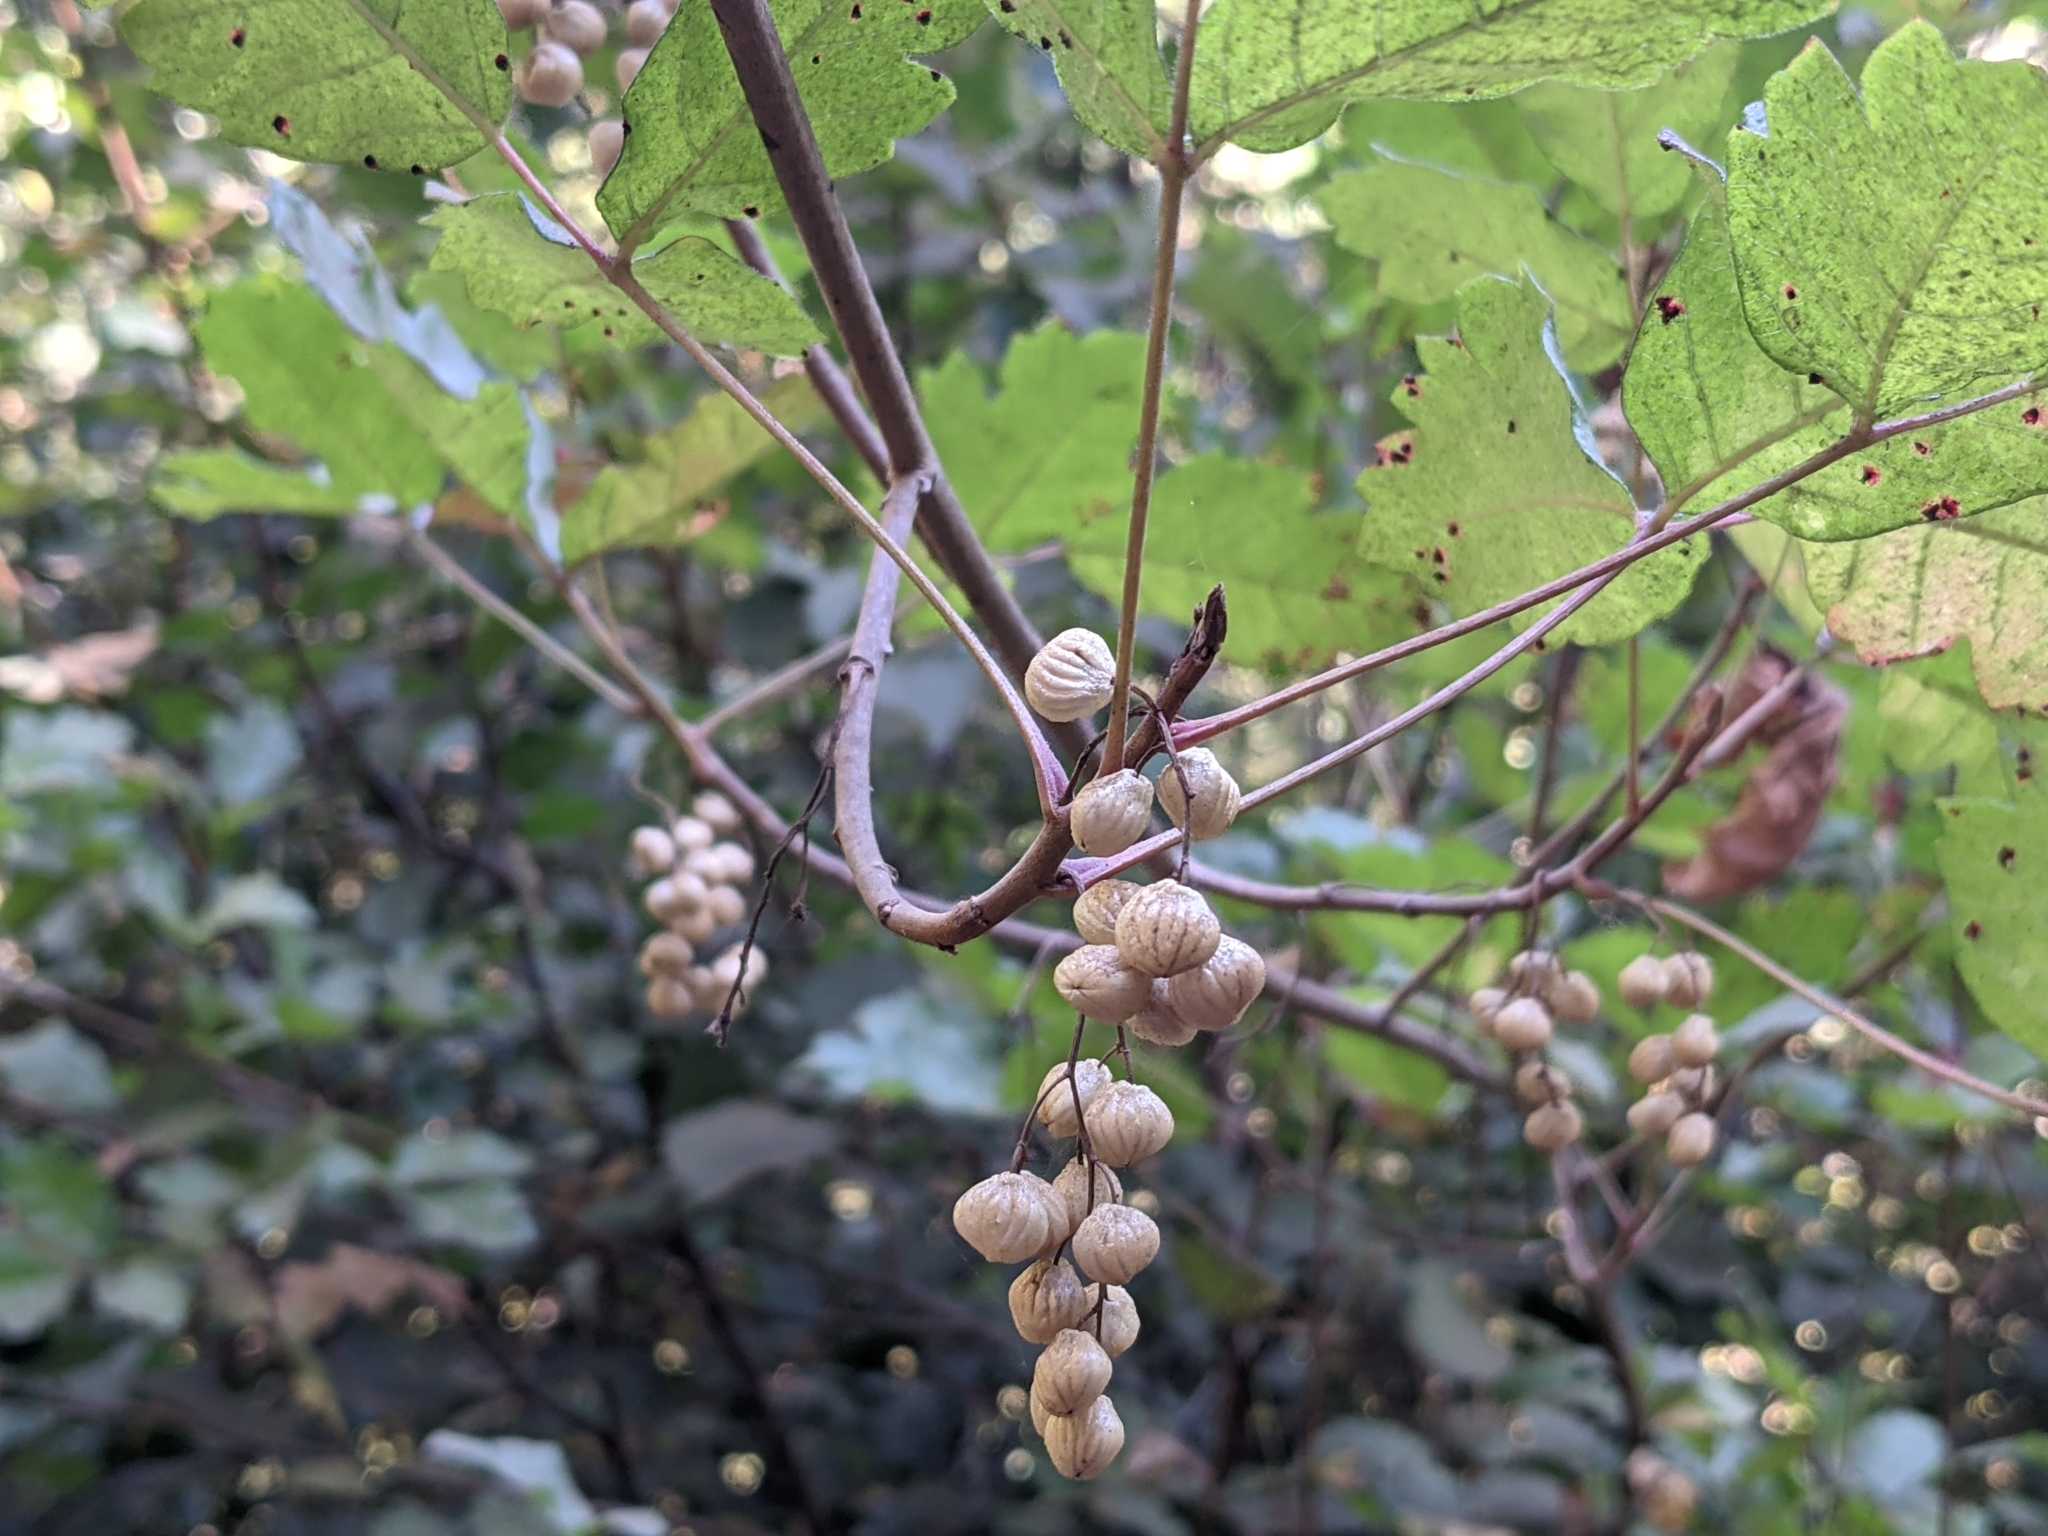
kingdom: Plantae
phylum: Tracheophyta
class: Magnoliopsida
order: Sapindales
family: Anacardiaceae
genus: Toxicodendron
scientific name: Toxicodendron diversilobum
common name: Pacific poison-oak
